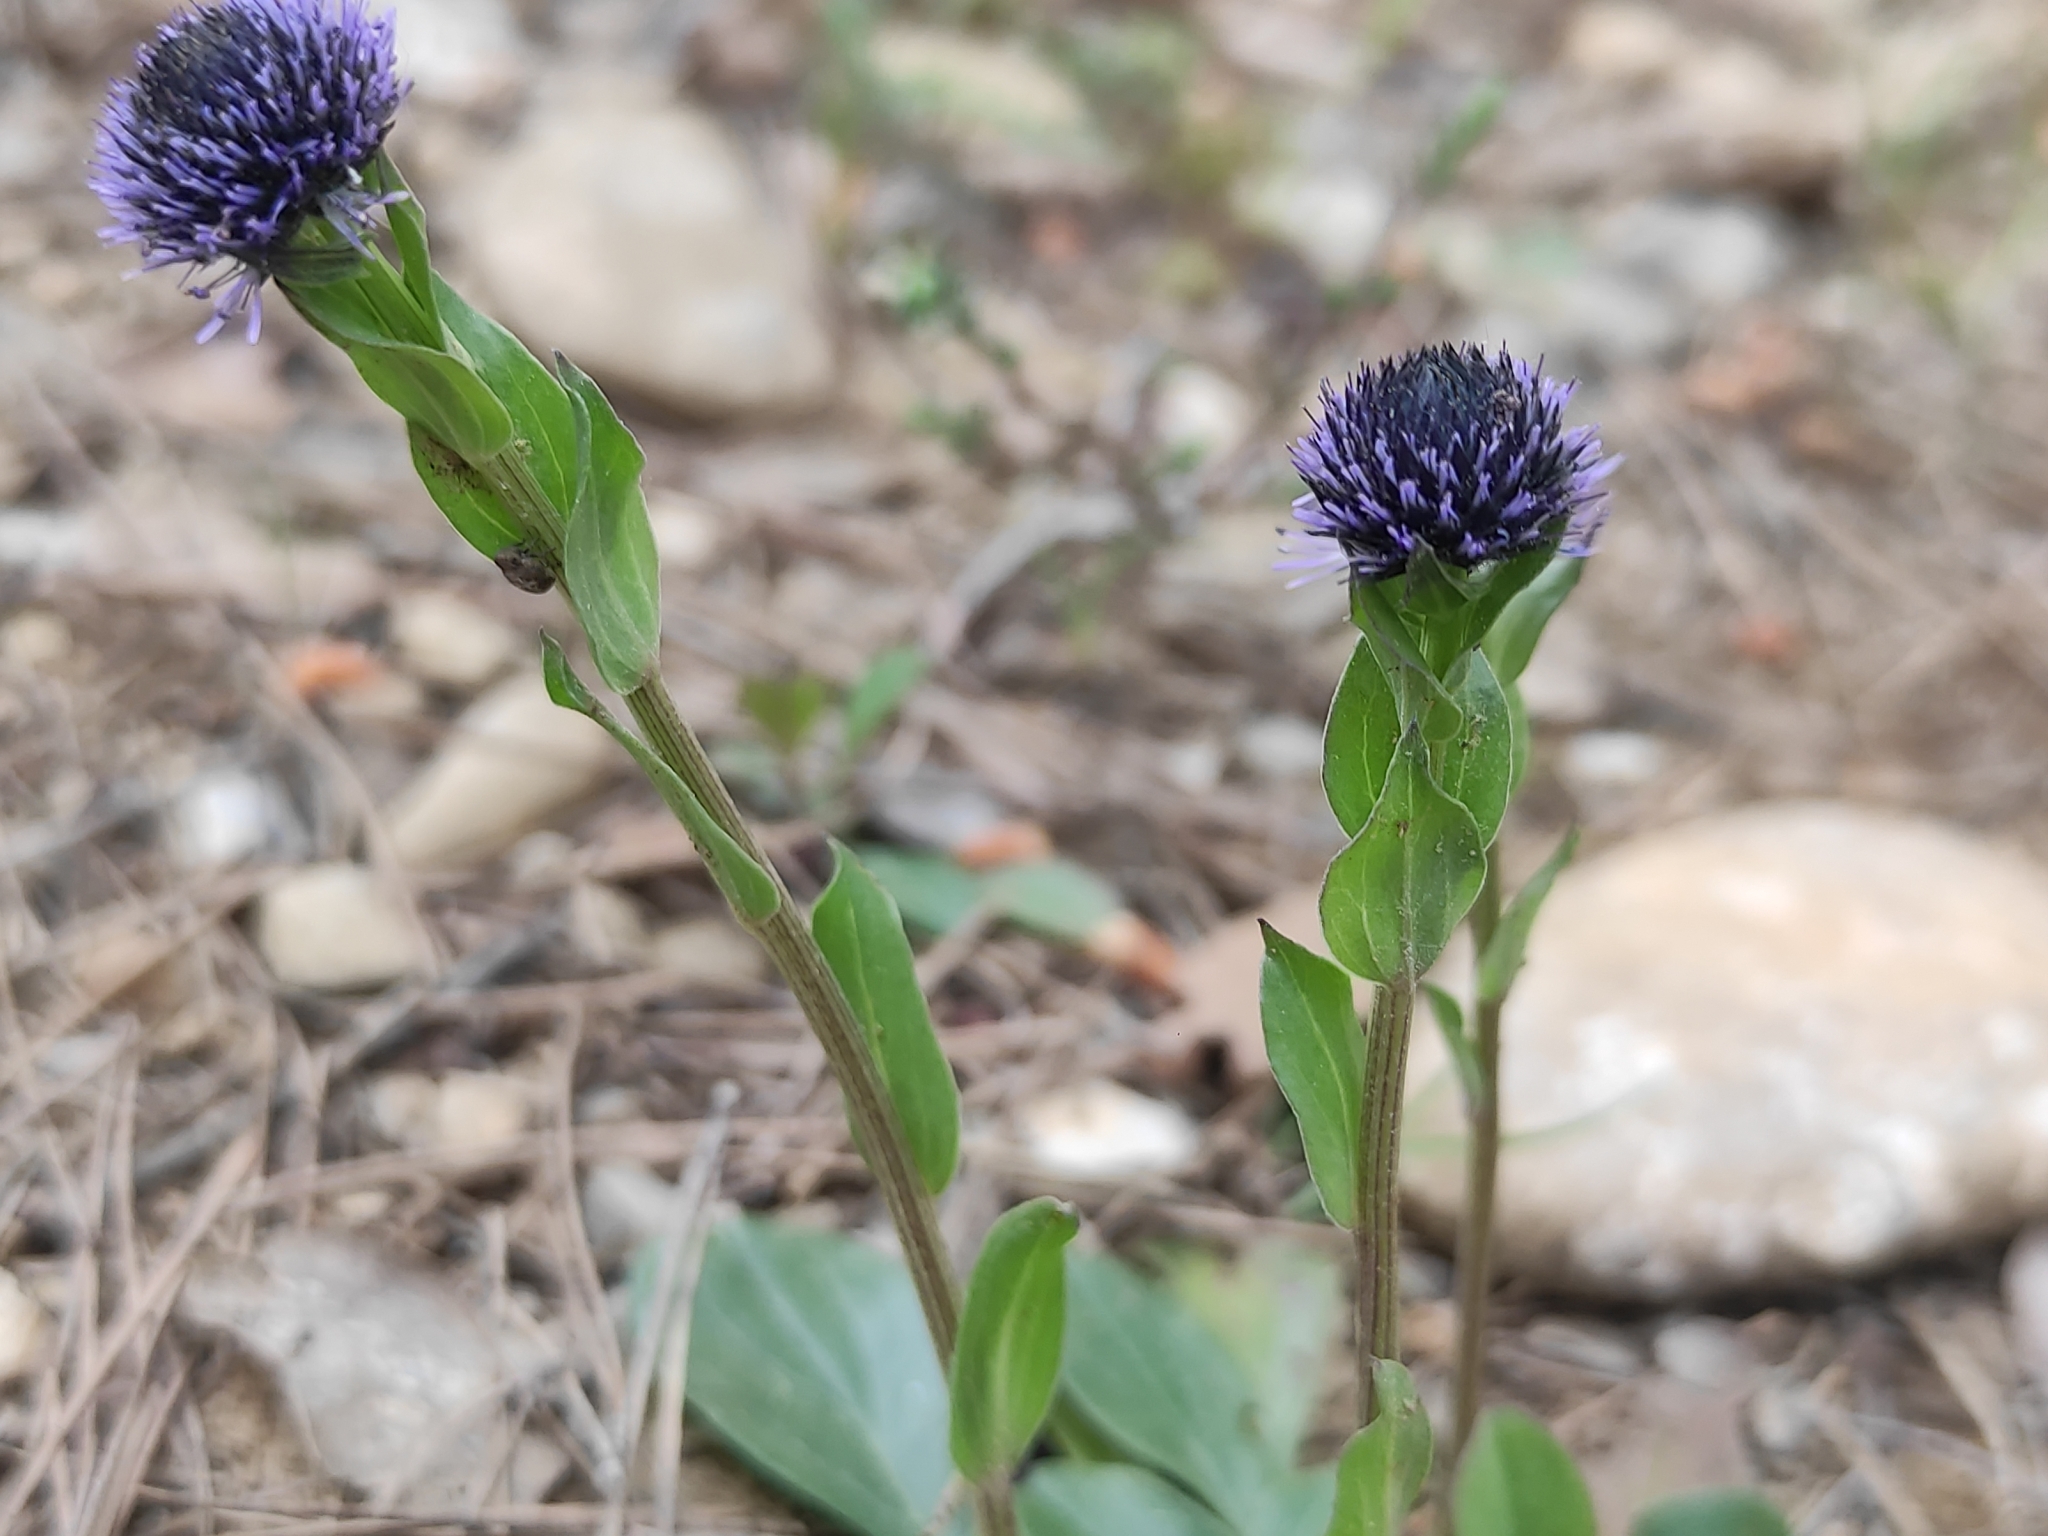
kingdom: Plantae
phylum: Tracheophyta
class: Magnoliopsida
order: Lamiales
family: Plantaginaceae
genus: Globularia
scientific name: Globularia bisnagarica
